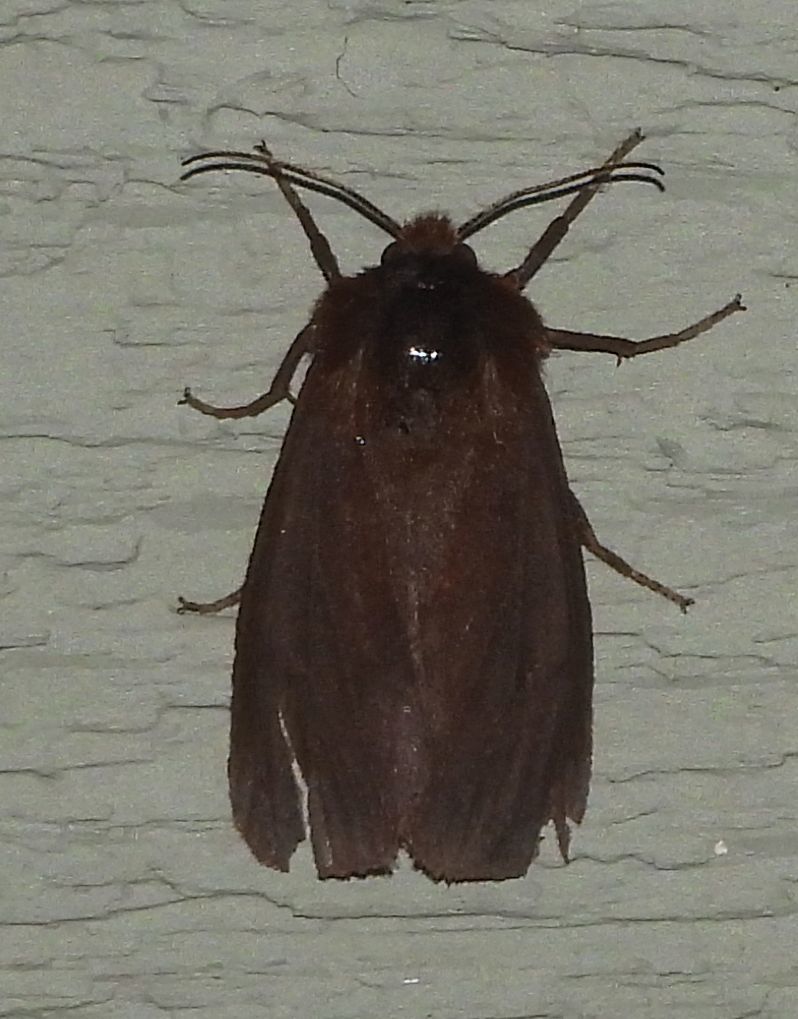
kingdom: Animalia
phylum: Arthropoda
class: Insecta
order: Lepidoptera
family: Erebidae
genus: Phragmatobia
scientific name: Phragmatobia fuliginosa
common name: Ruby tiger
